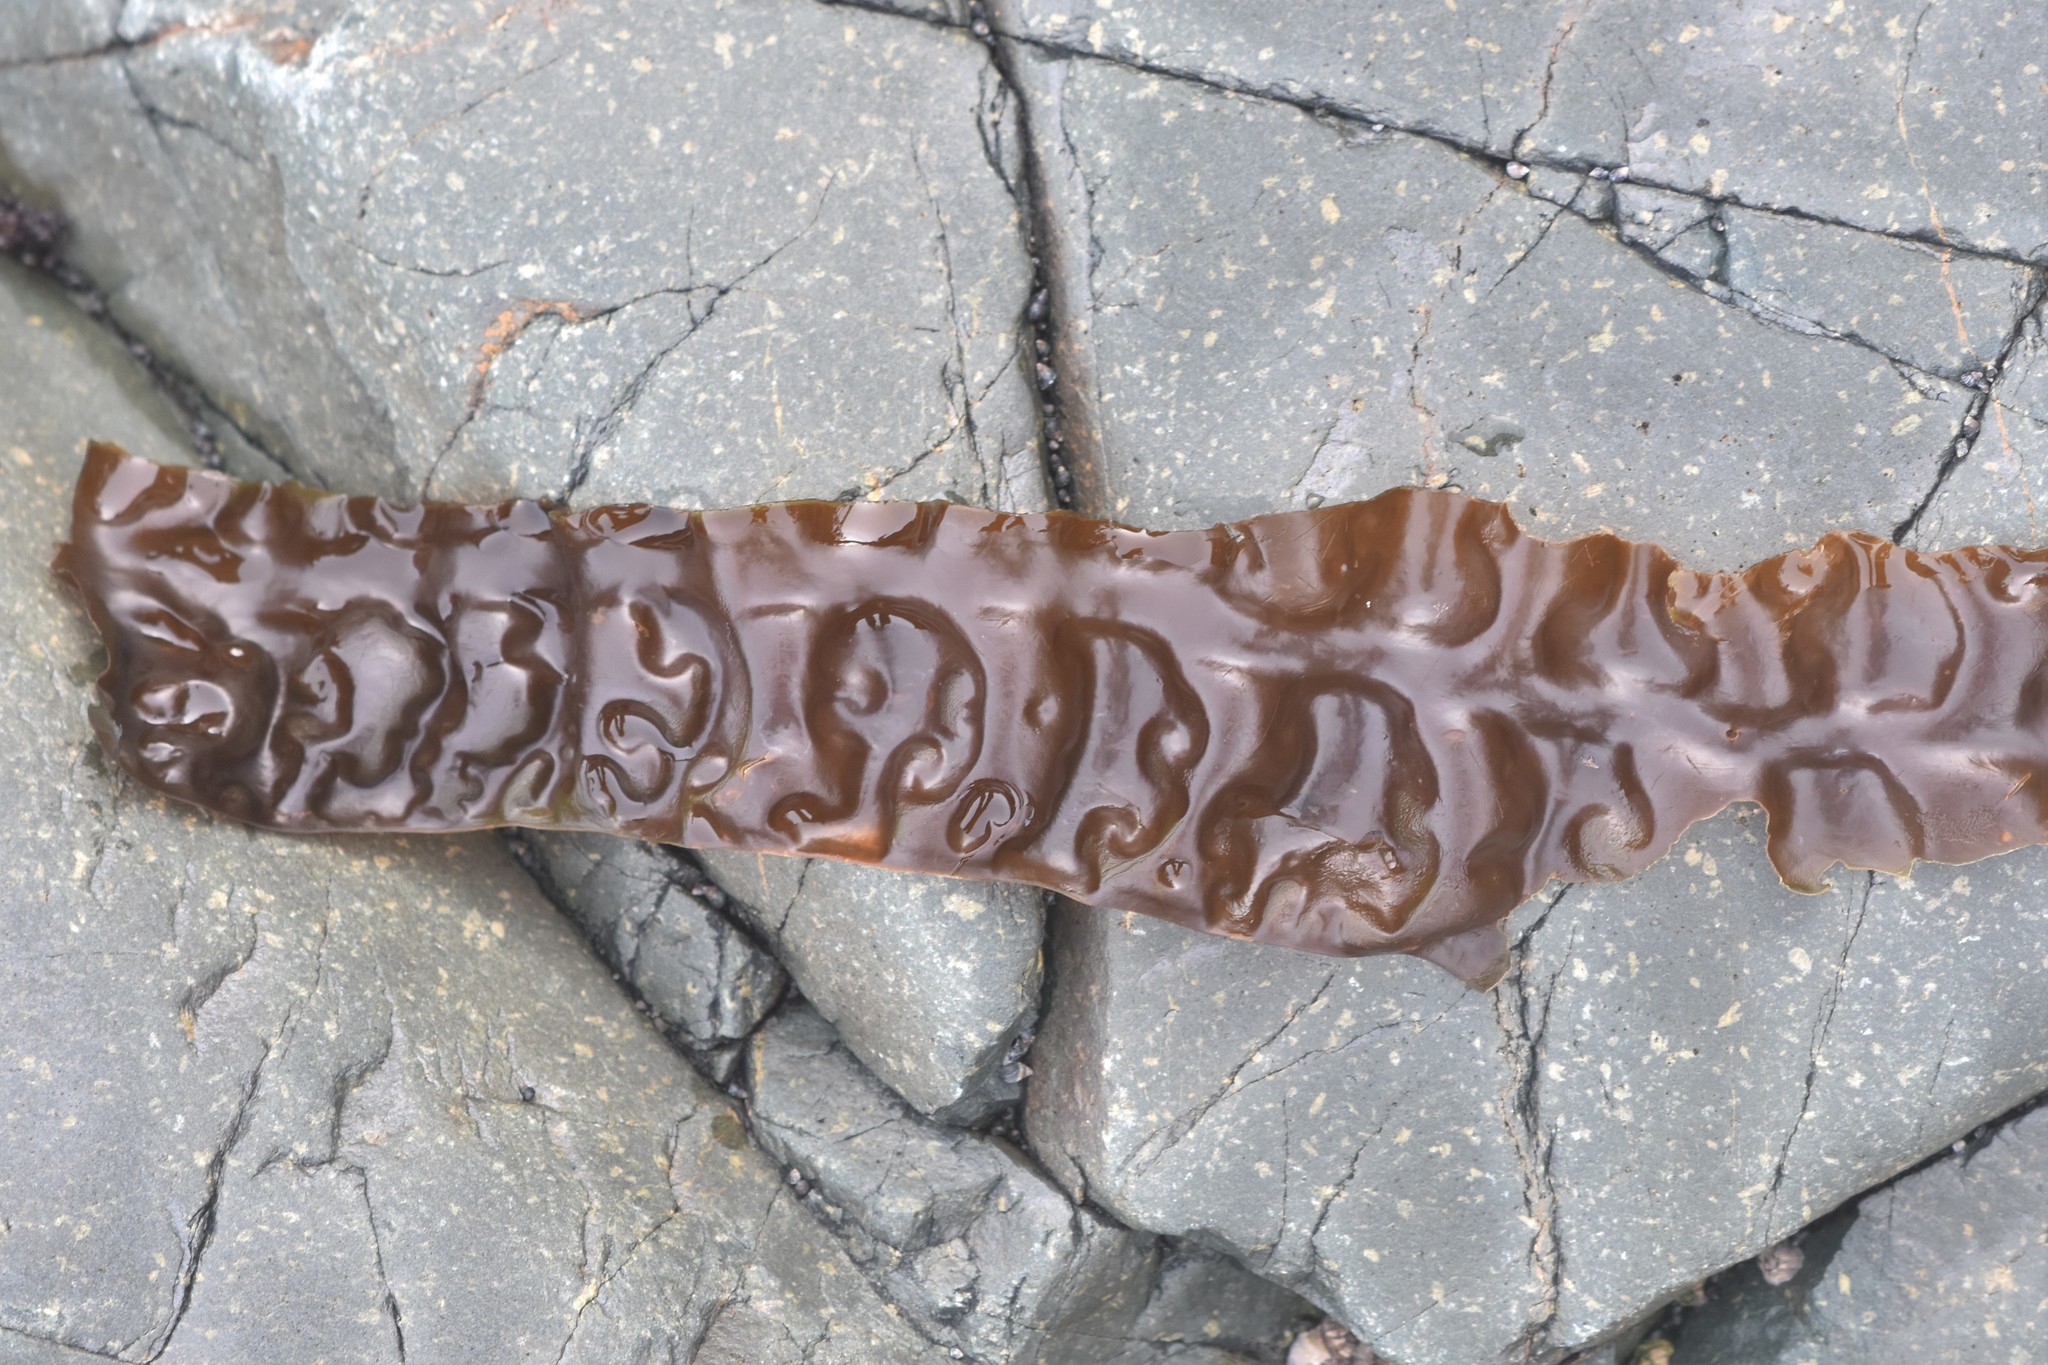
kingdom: Chromista
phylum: Ochrophyta
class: Phaeophyceae
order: Laminariales
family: Laminariaceae
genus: Saccharina
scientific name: Saccharina latissima
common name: Poor man's weather glass
